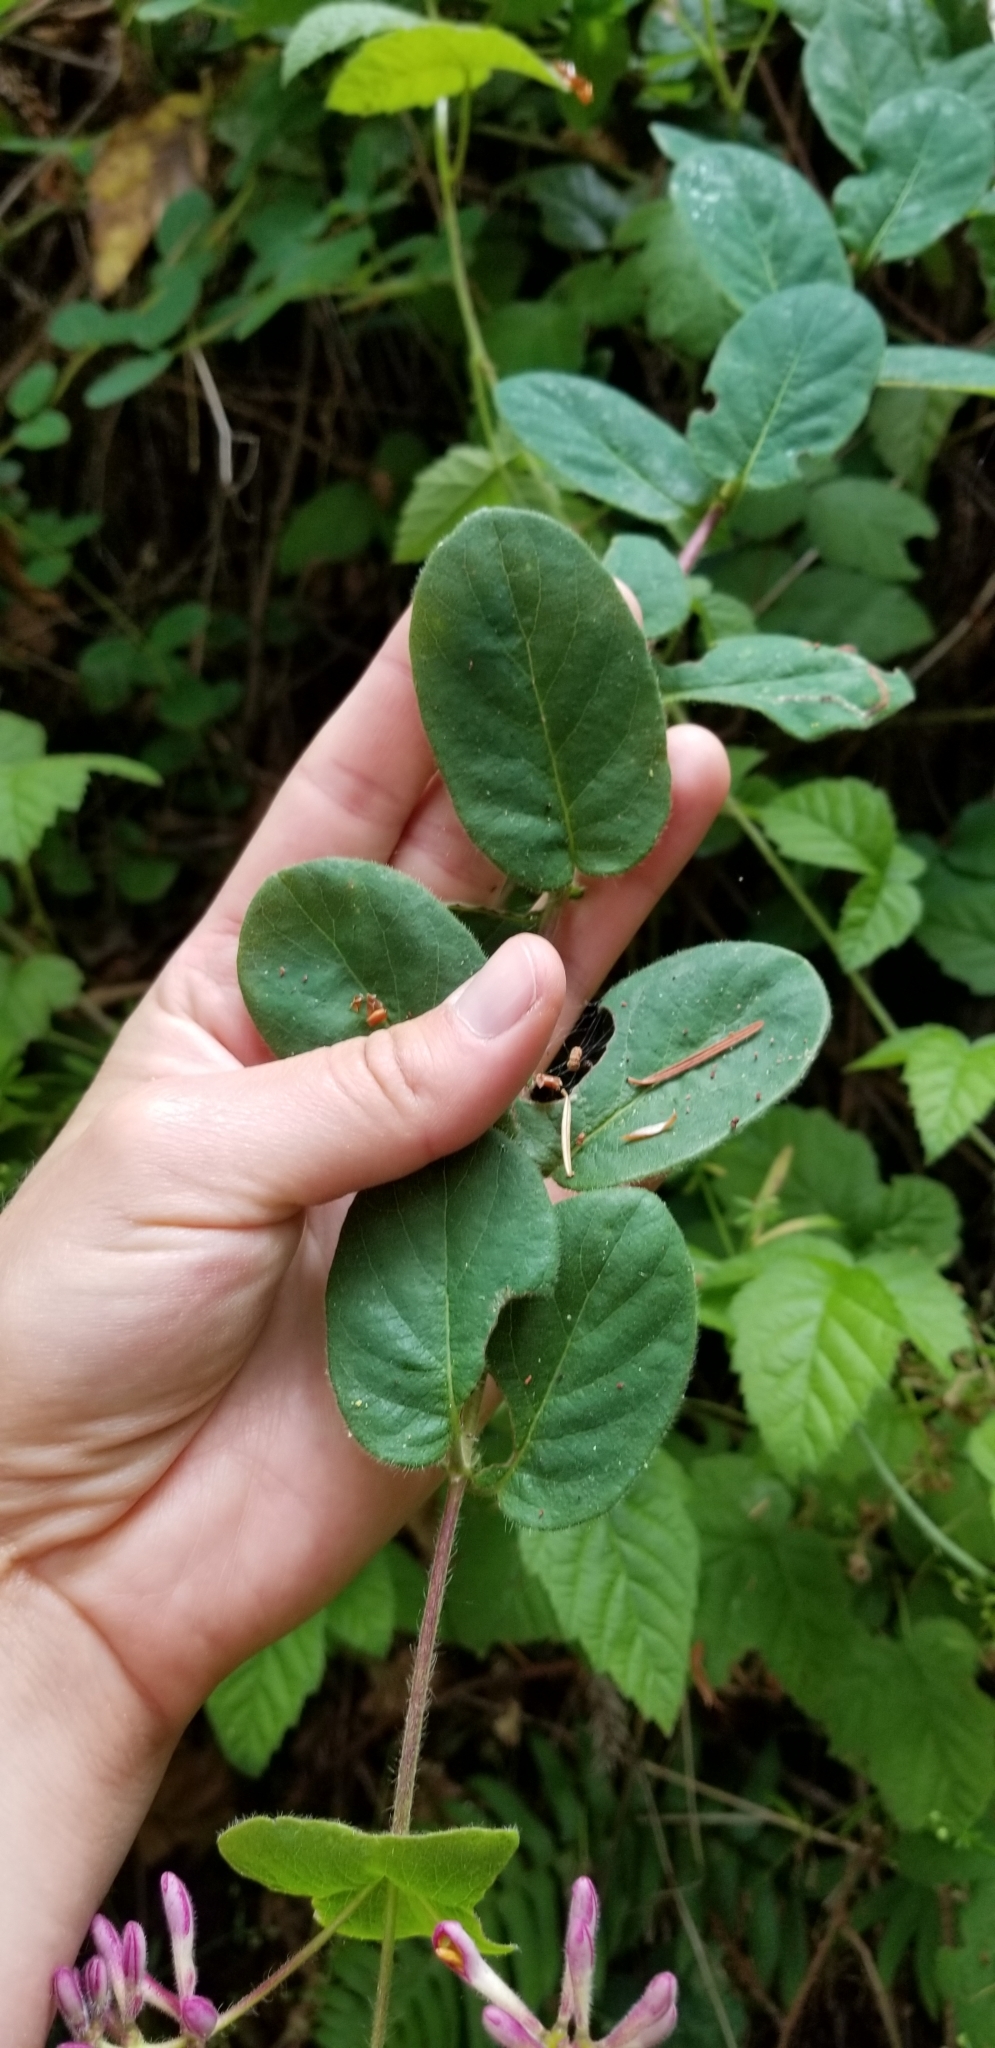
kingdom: Plantae
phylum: Tracheophyta
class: Magnoliopsida
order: Dipsacales
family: Caprifoliaceae
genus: Lonicera
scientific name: Lonicera hispidula
